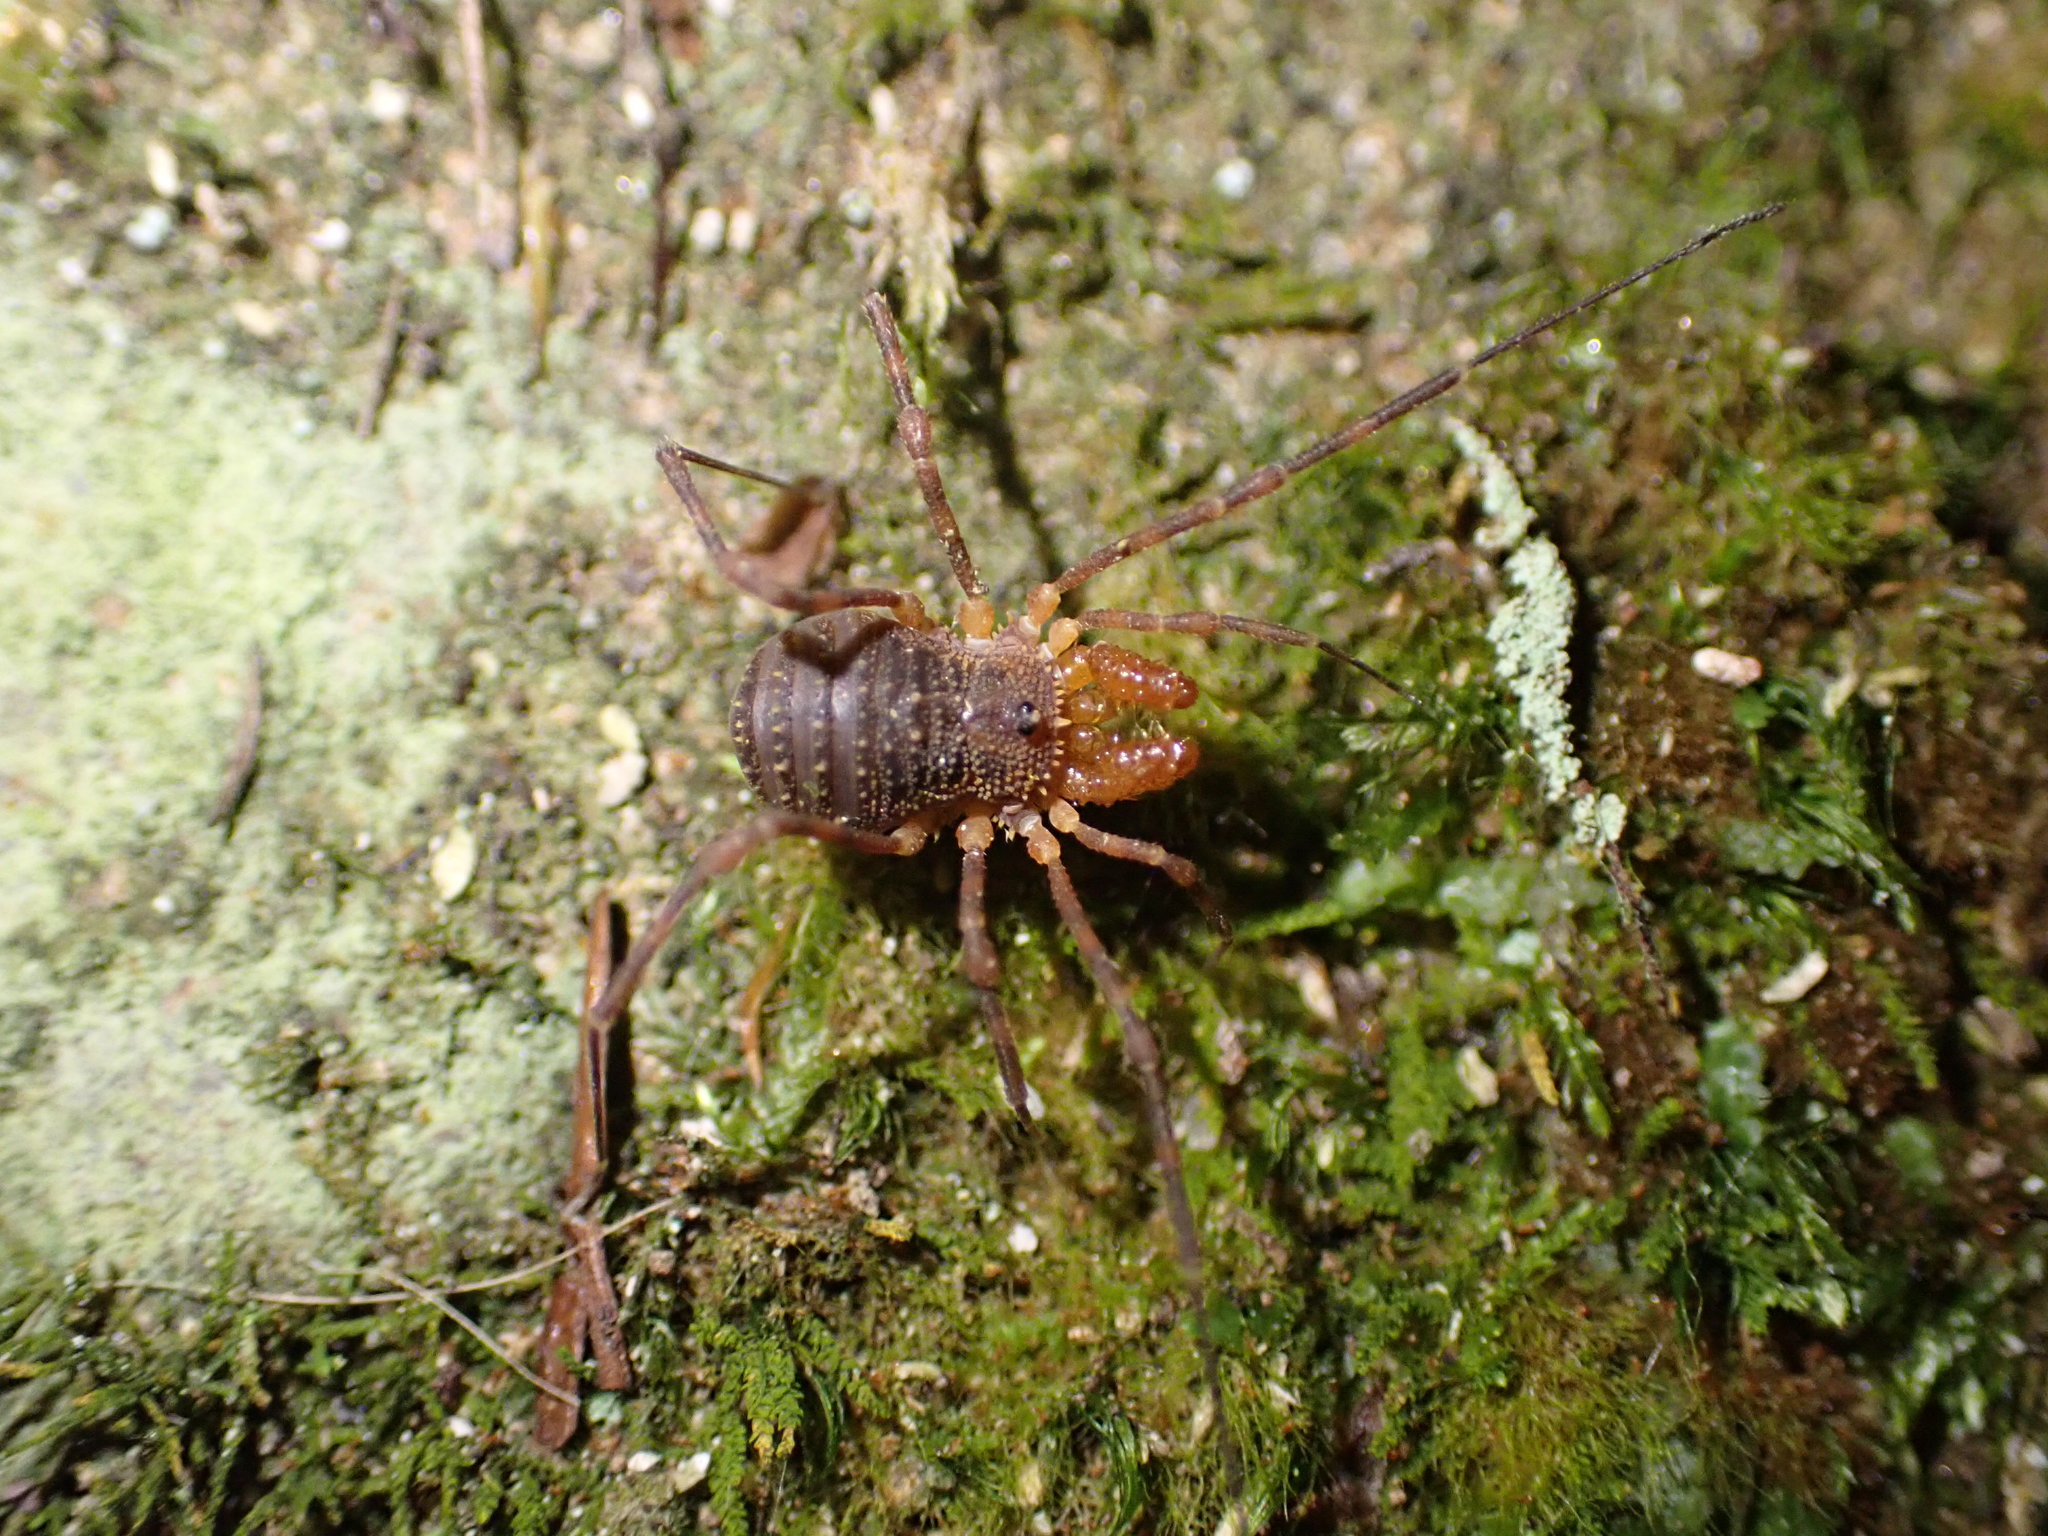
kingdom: Animalia
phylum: Arthropoda
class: Arachnida
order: Opiliones
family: Triaenonychidae
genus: Prasma
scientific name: Prasma tuberculata
